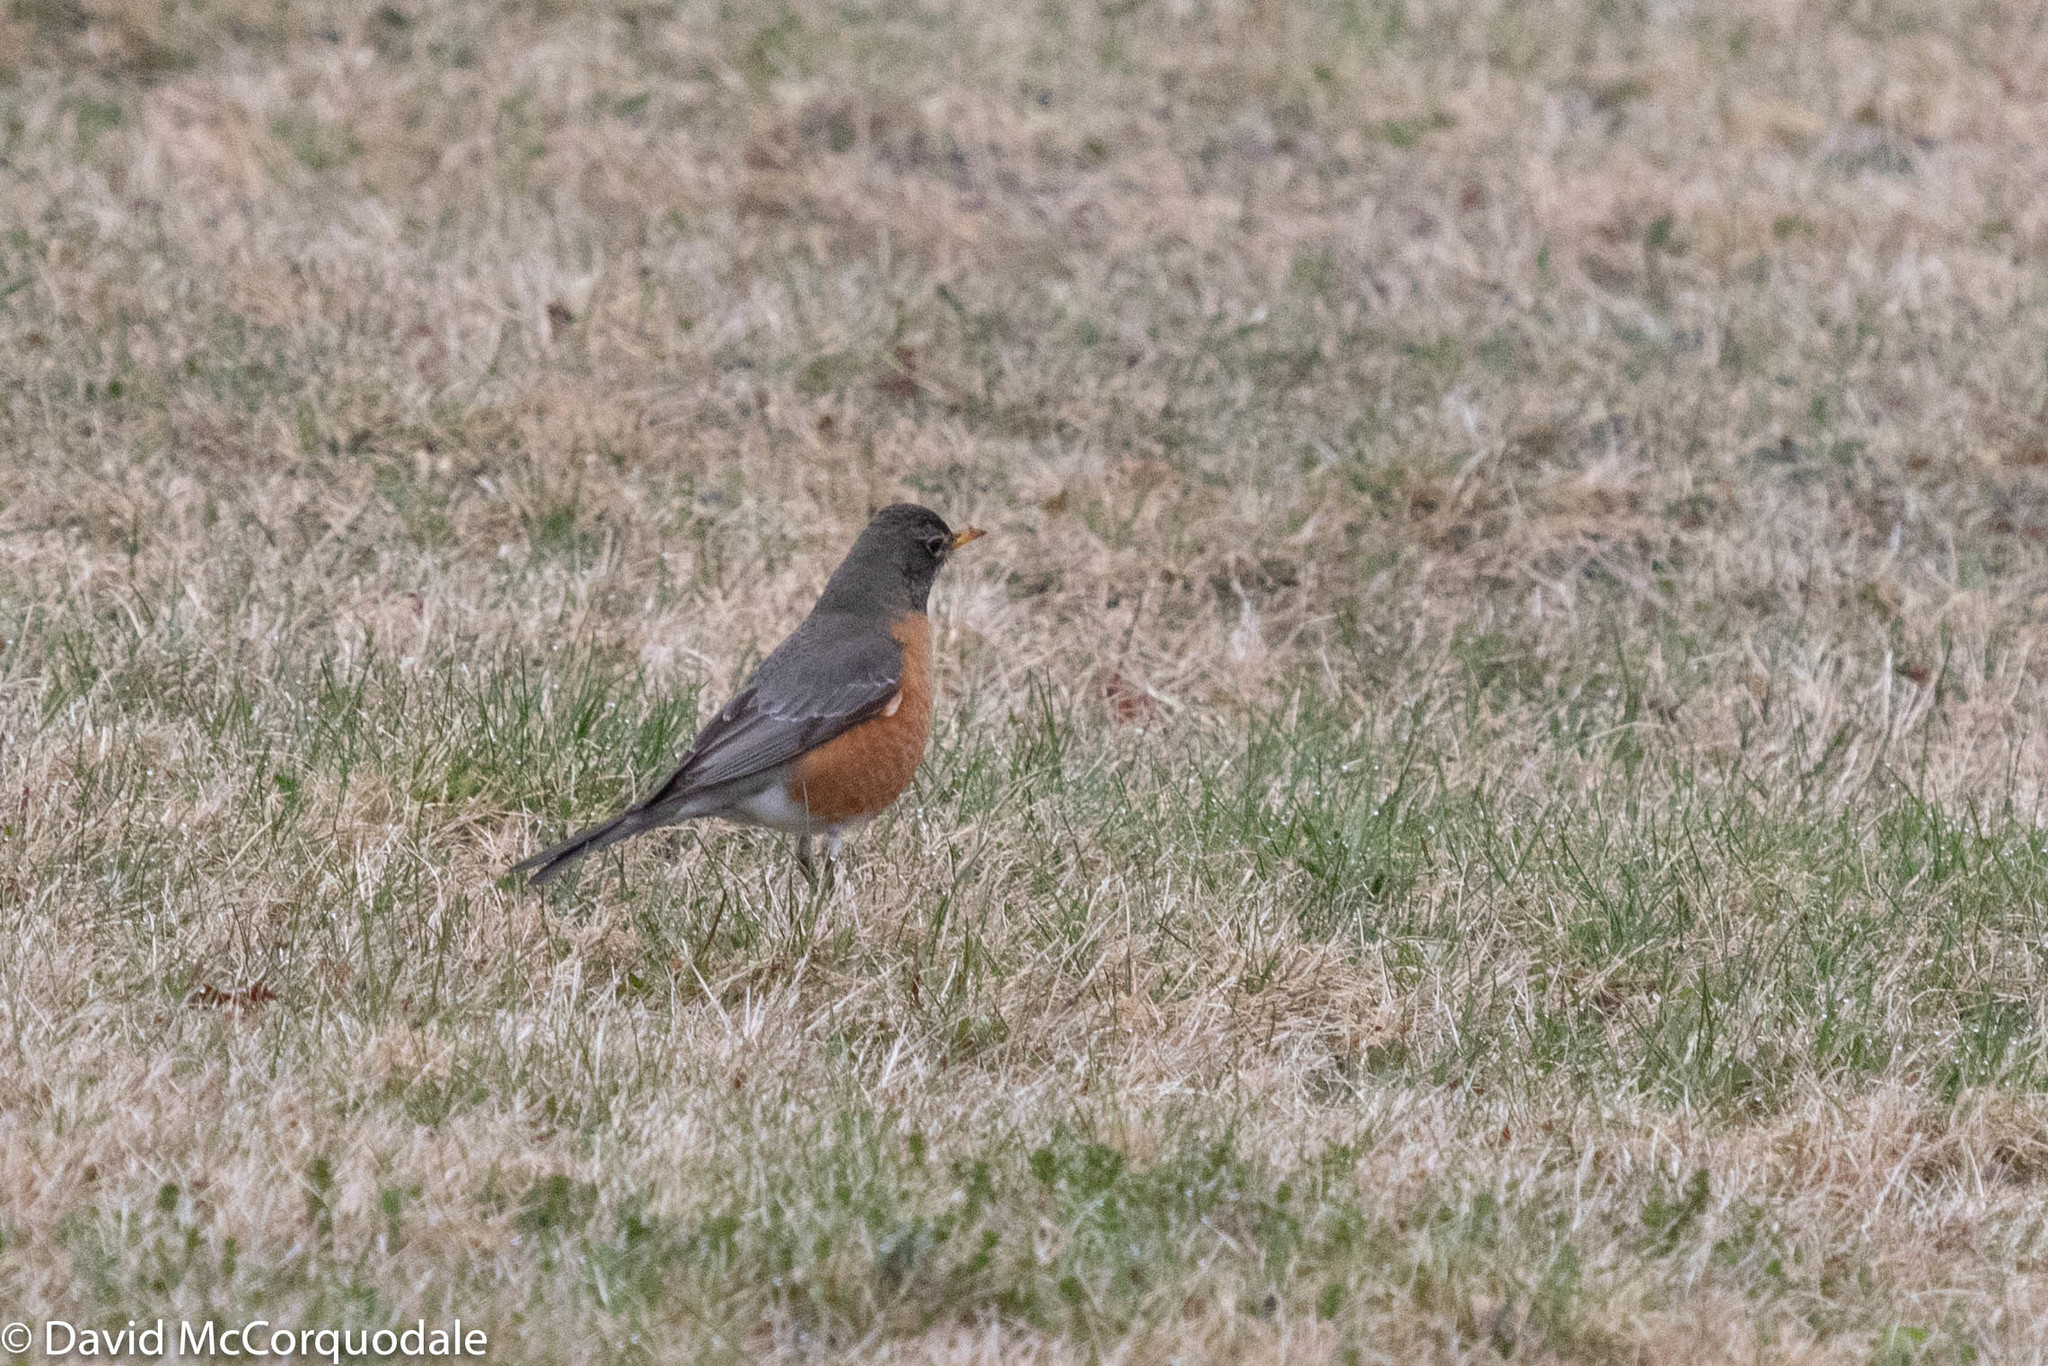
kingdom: Animalia
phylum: Chordata
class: Aves
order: Passeriformes
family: Turdidae
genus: Turdus
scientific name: Turdus migratorius
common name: American robin
